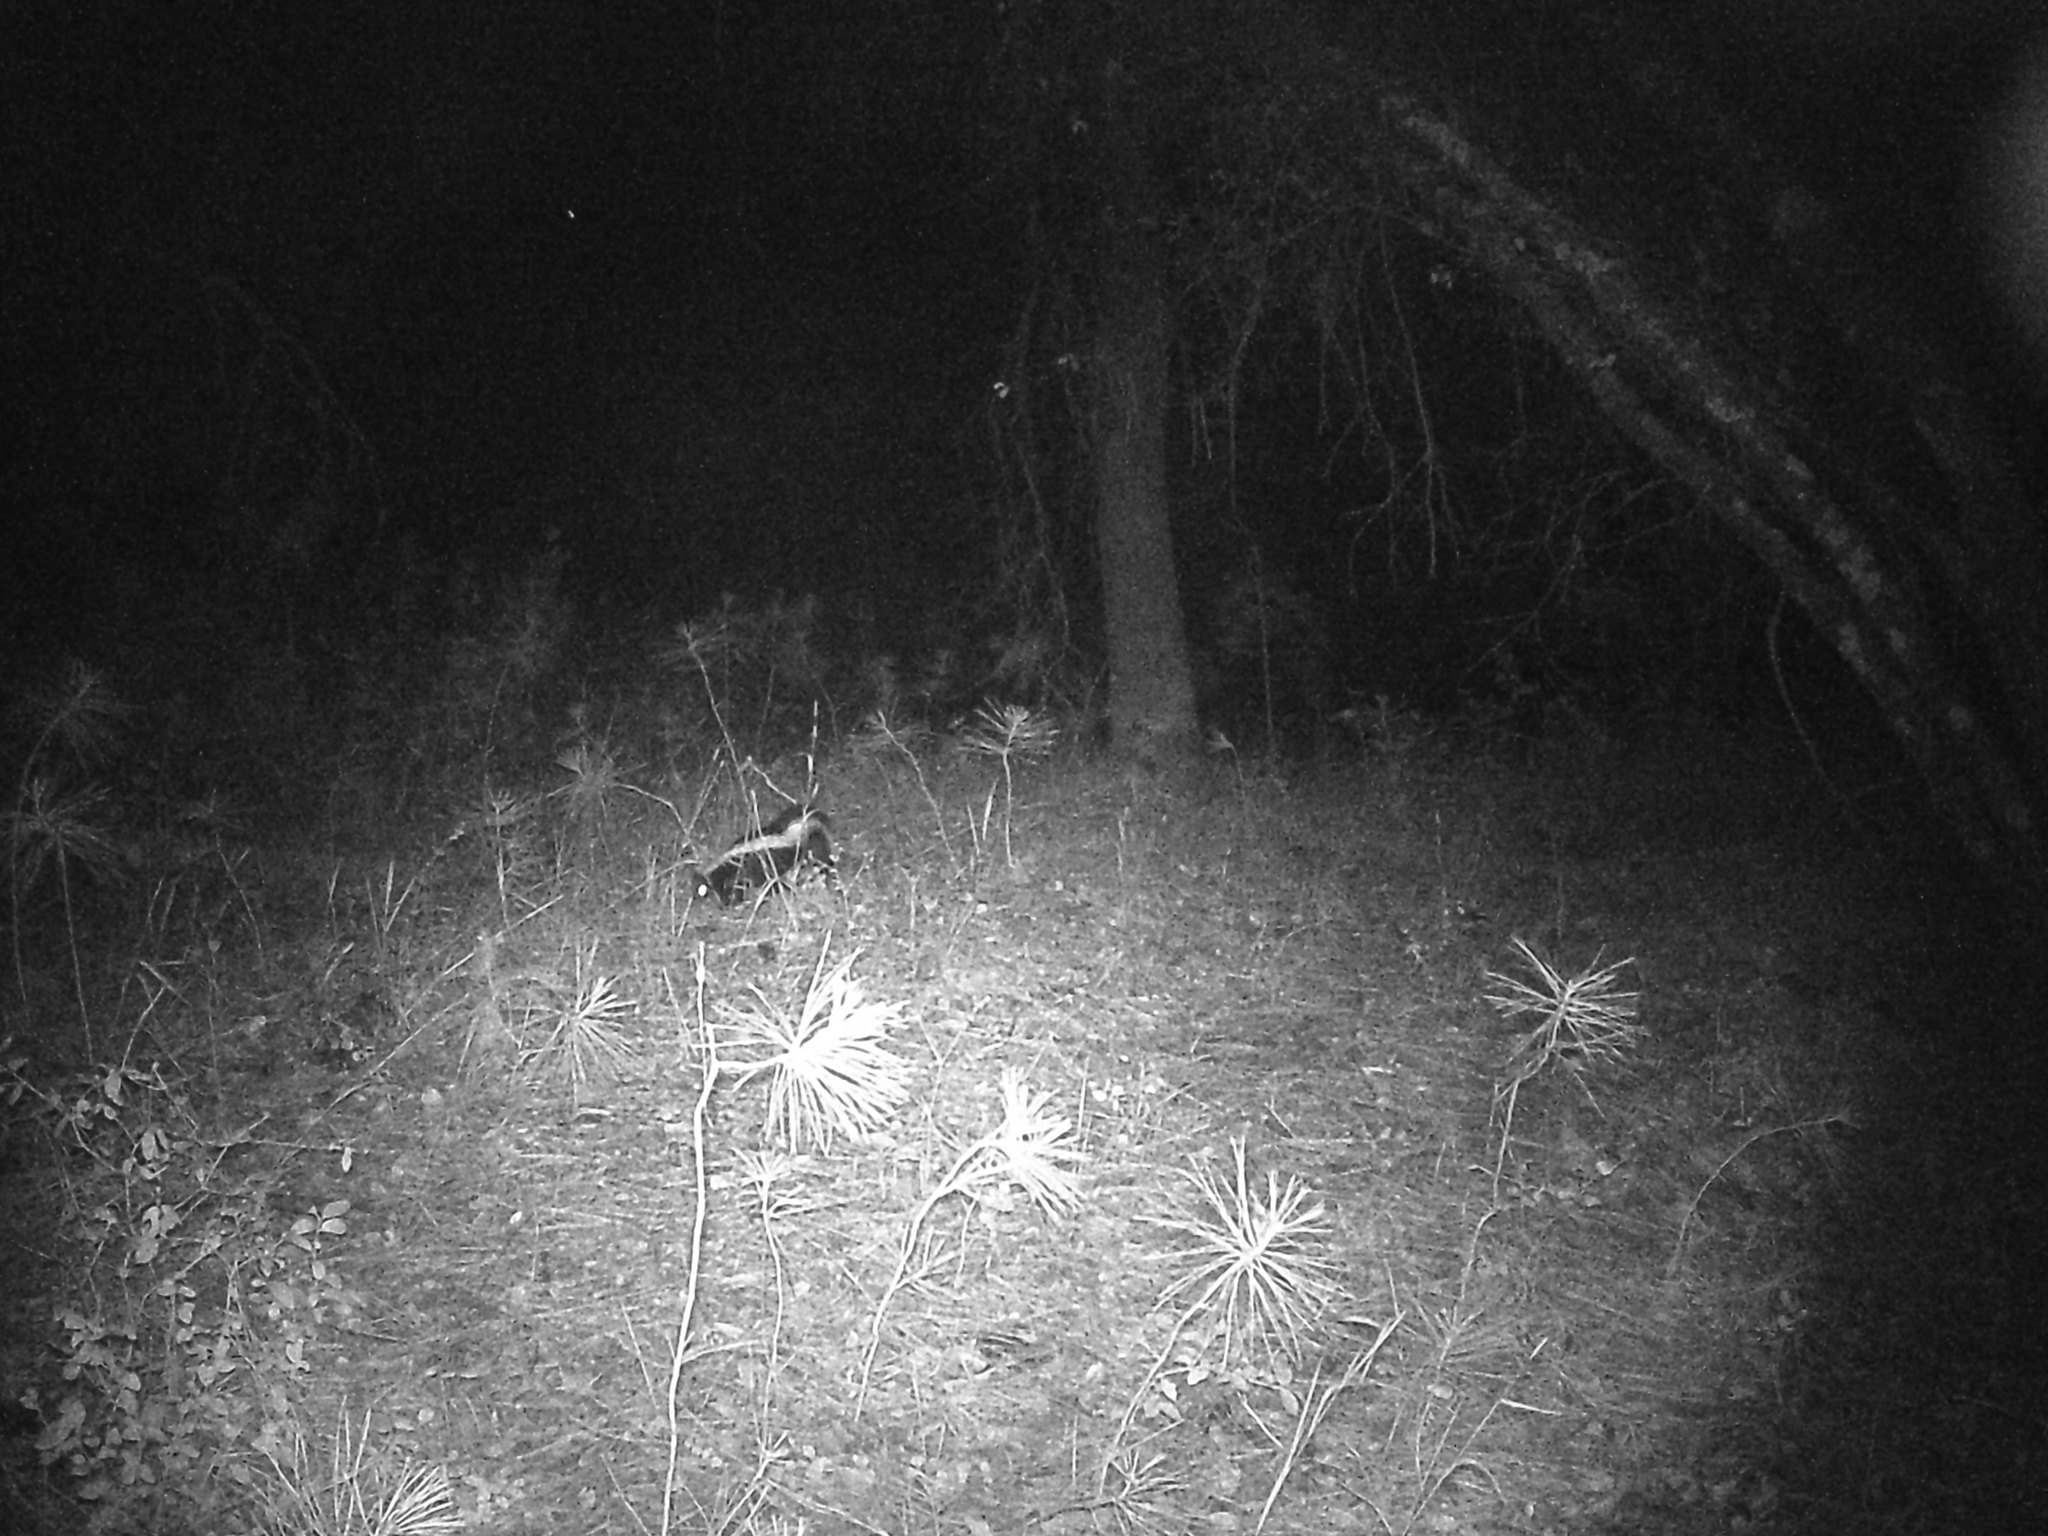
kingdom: Animalia
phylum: Chordata
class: Mammalia
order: Carnivora
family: Mephitidae
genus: Mephitis
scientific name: Mephitis mephitis
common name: Striped skunk
